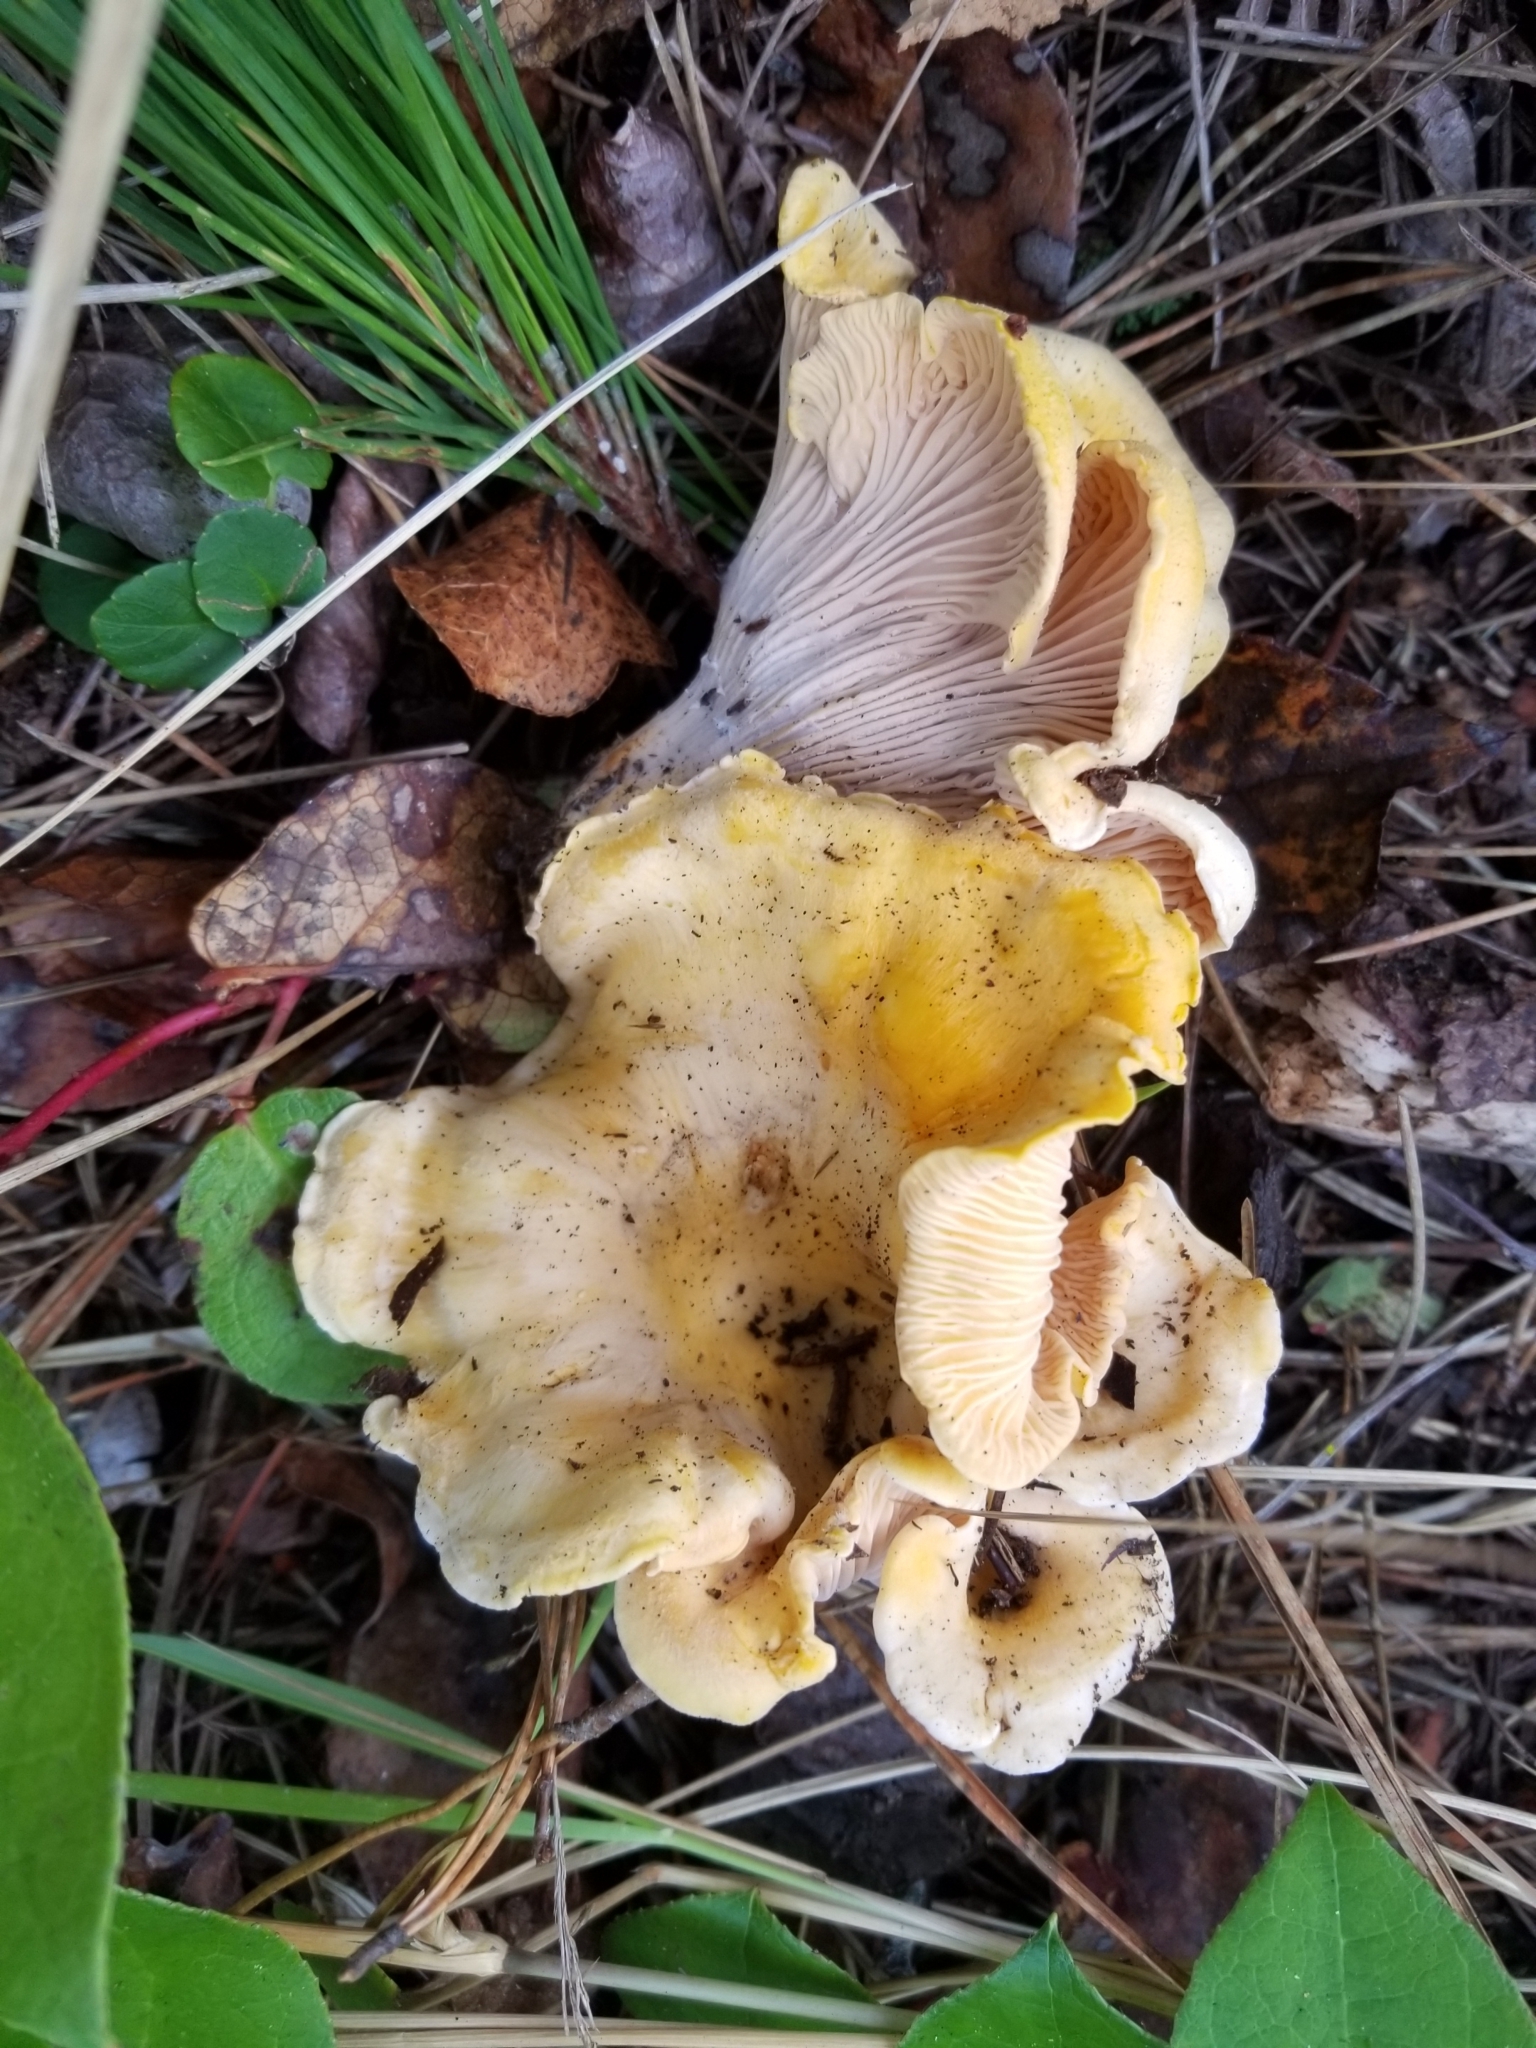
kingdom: Fungi
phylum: Basidiomycota
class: Agaricomycetes
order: Cantharellales
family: Hydnaceae
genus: Cantharellus
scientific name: Cantharellus cascadensis
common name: Cascade chanterelle
